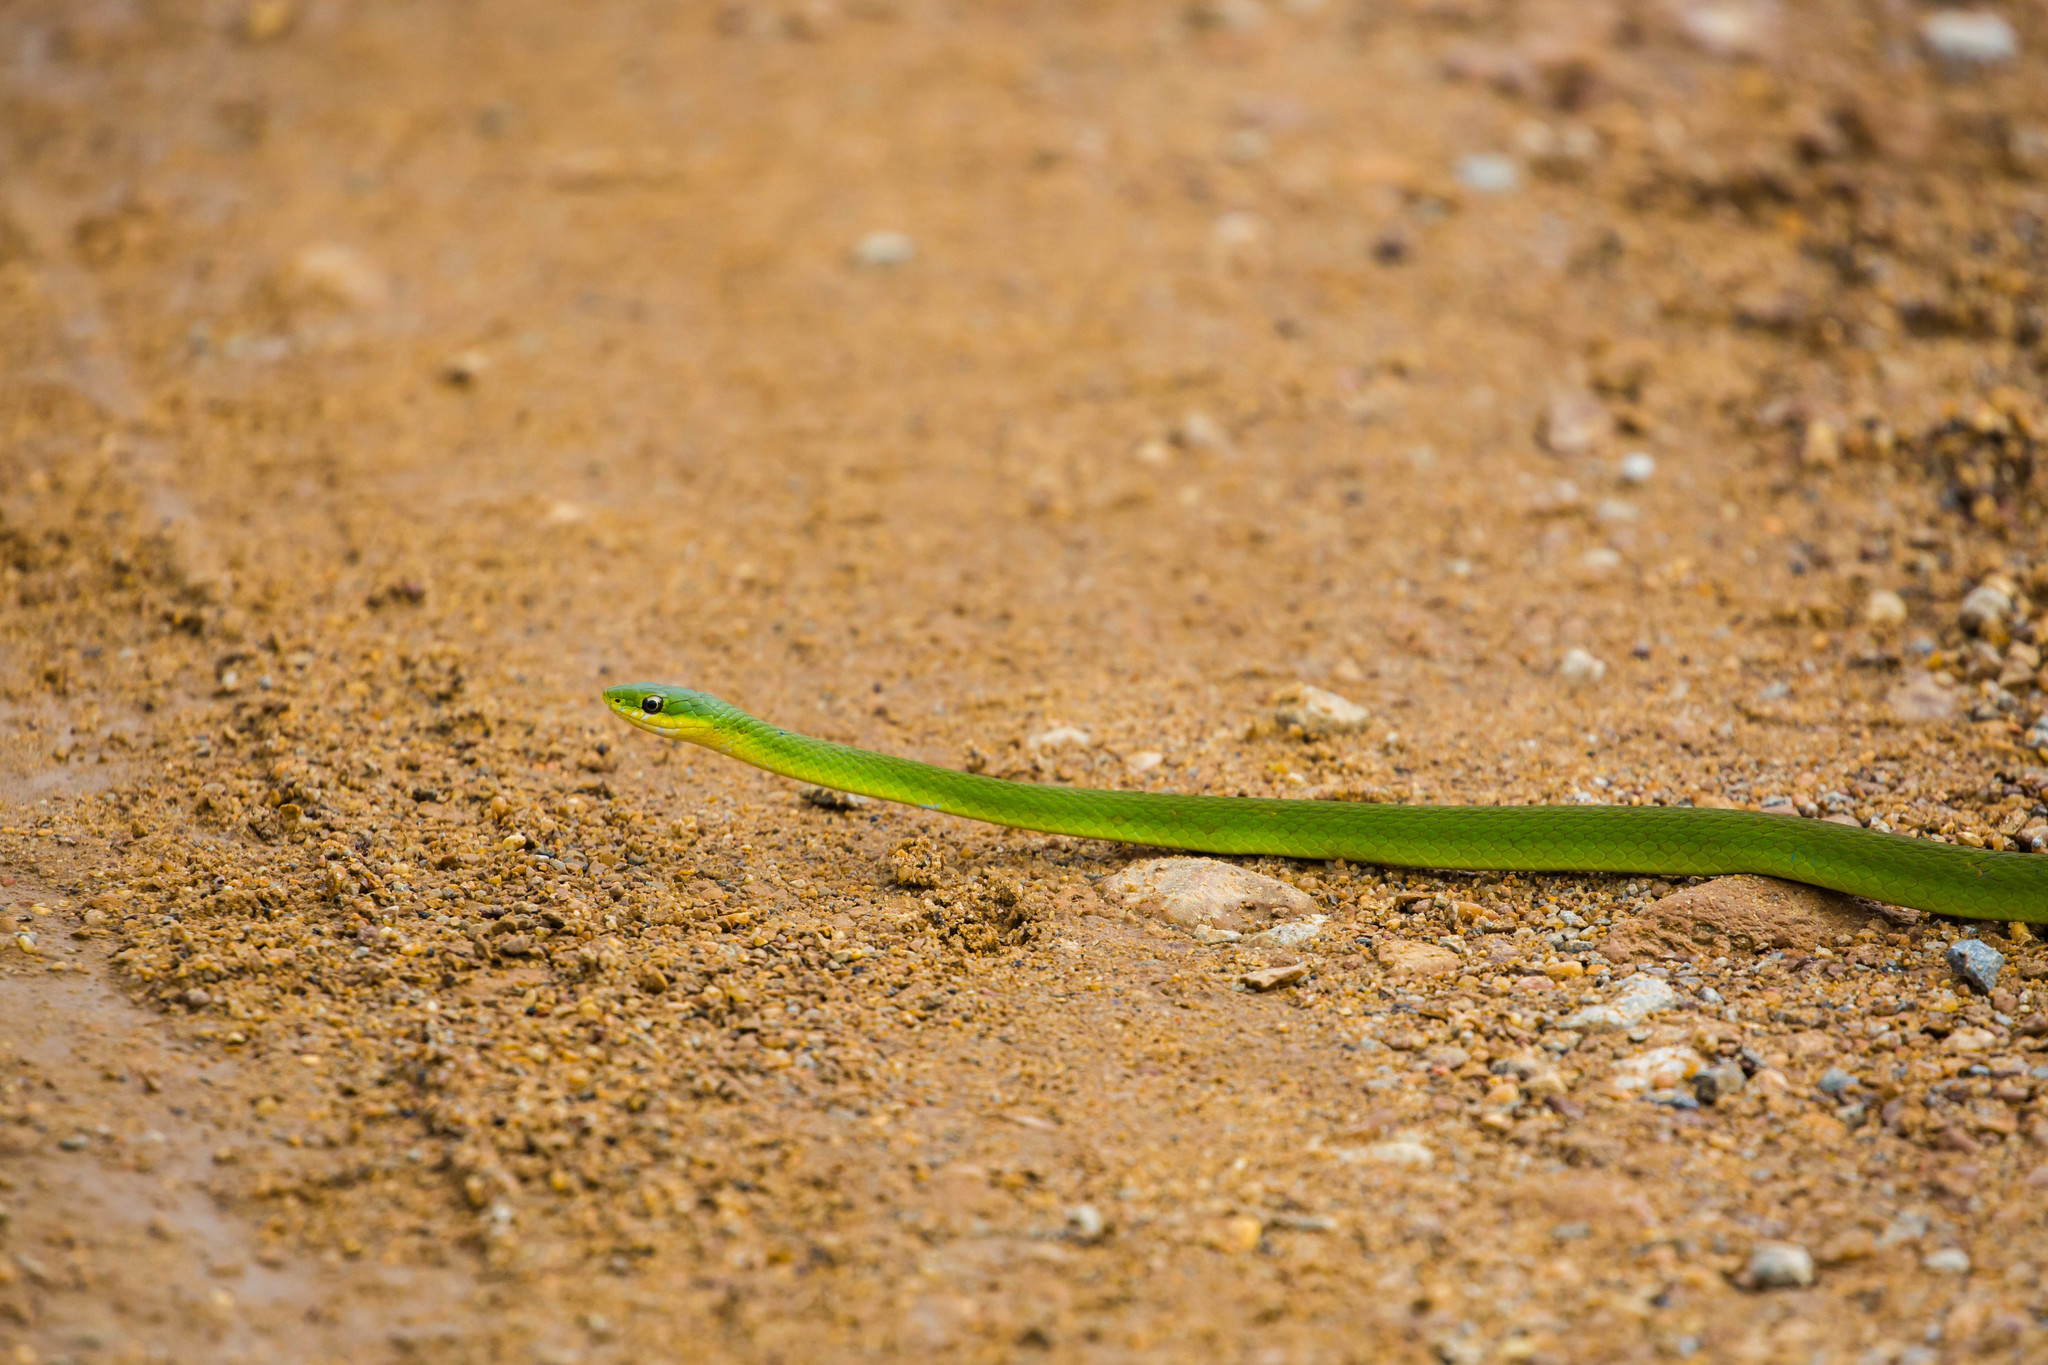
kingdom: Animalia
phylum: Chordata
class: Squamata
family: Colubridae
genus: Opheodrys
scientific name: Opheodrys aestivus
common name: Rough greensnake
